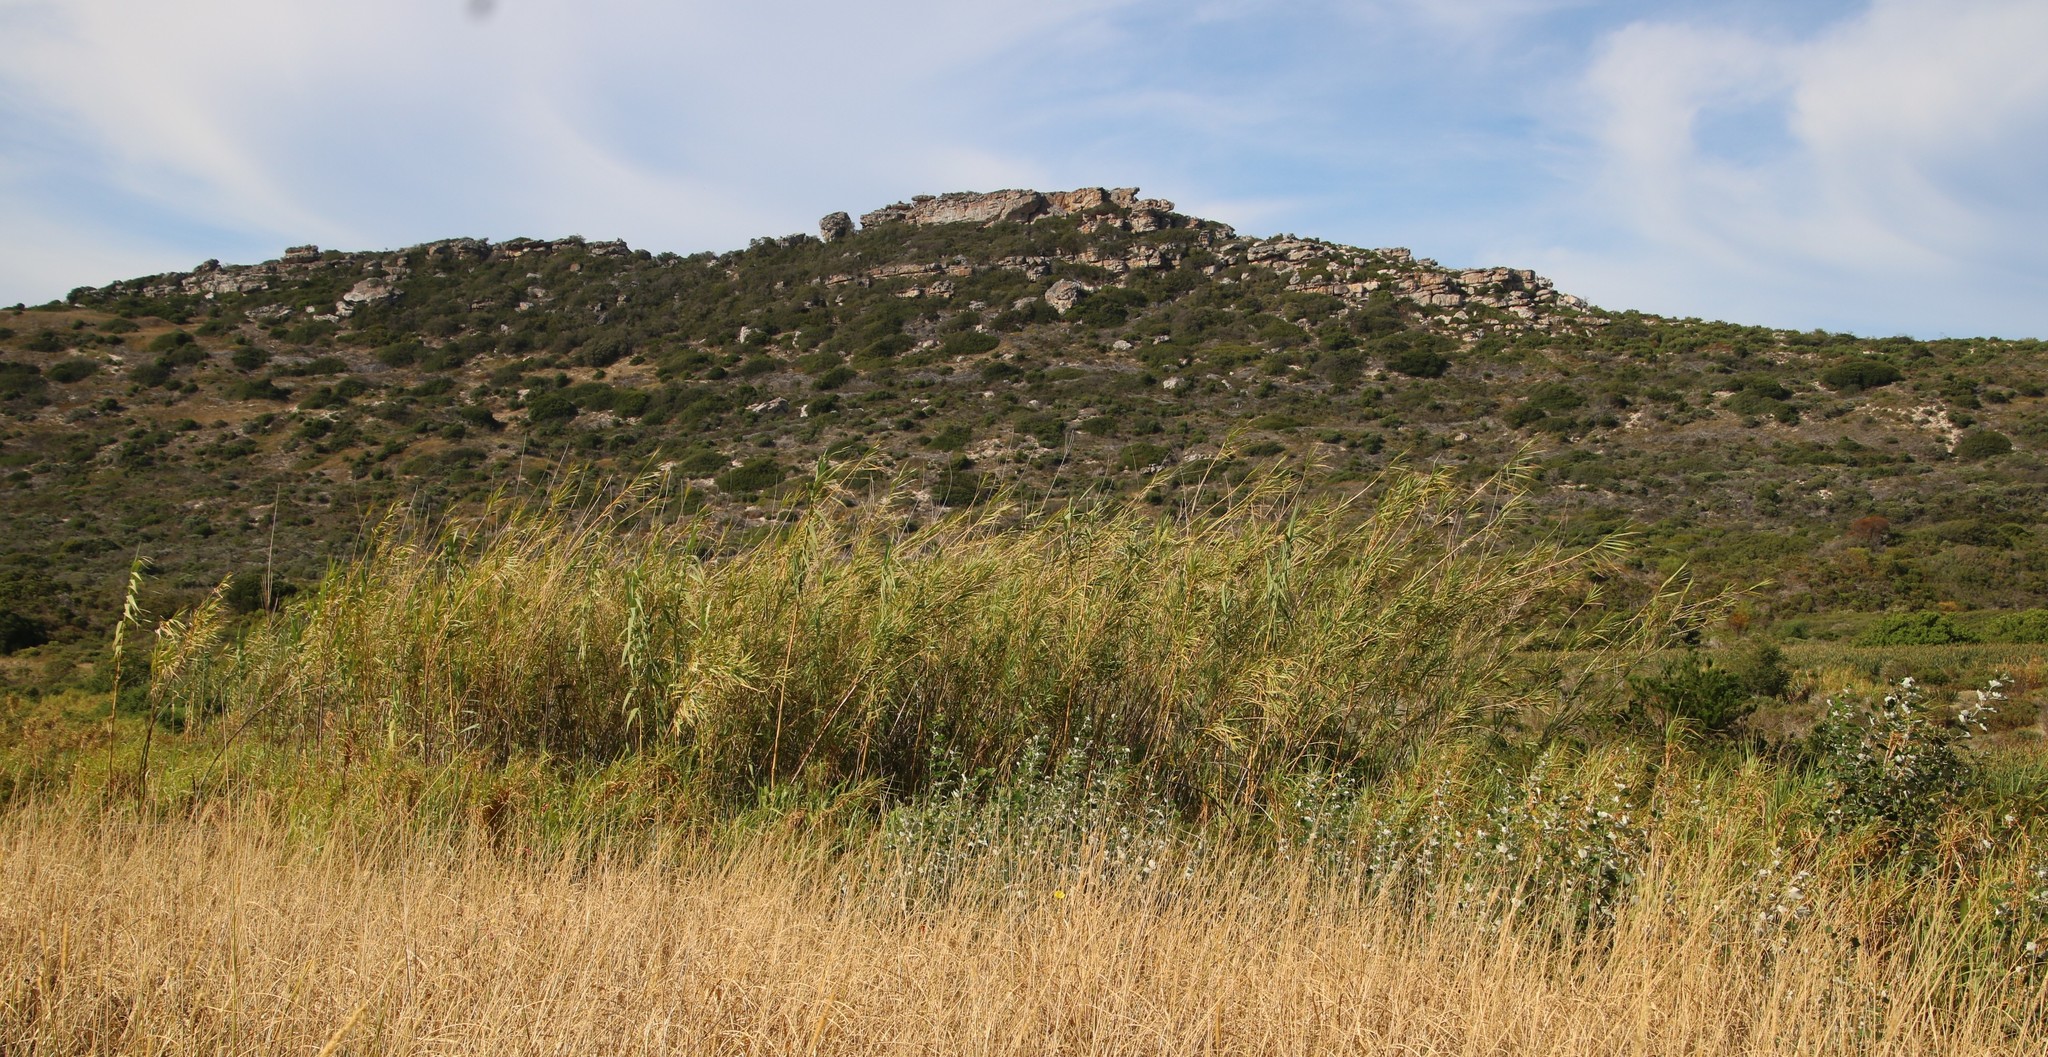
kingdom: Plantae
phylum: Tracheophyta
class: Liliopsida
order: Poales
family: Poaceae
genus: Arundo
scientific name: Arundo donax
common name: Giant reed
